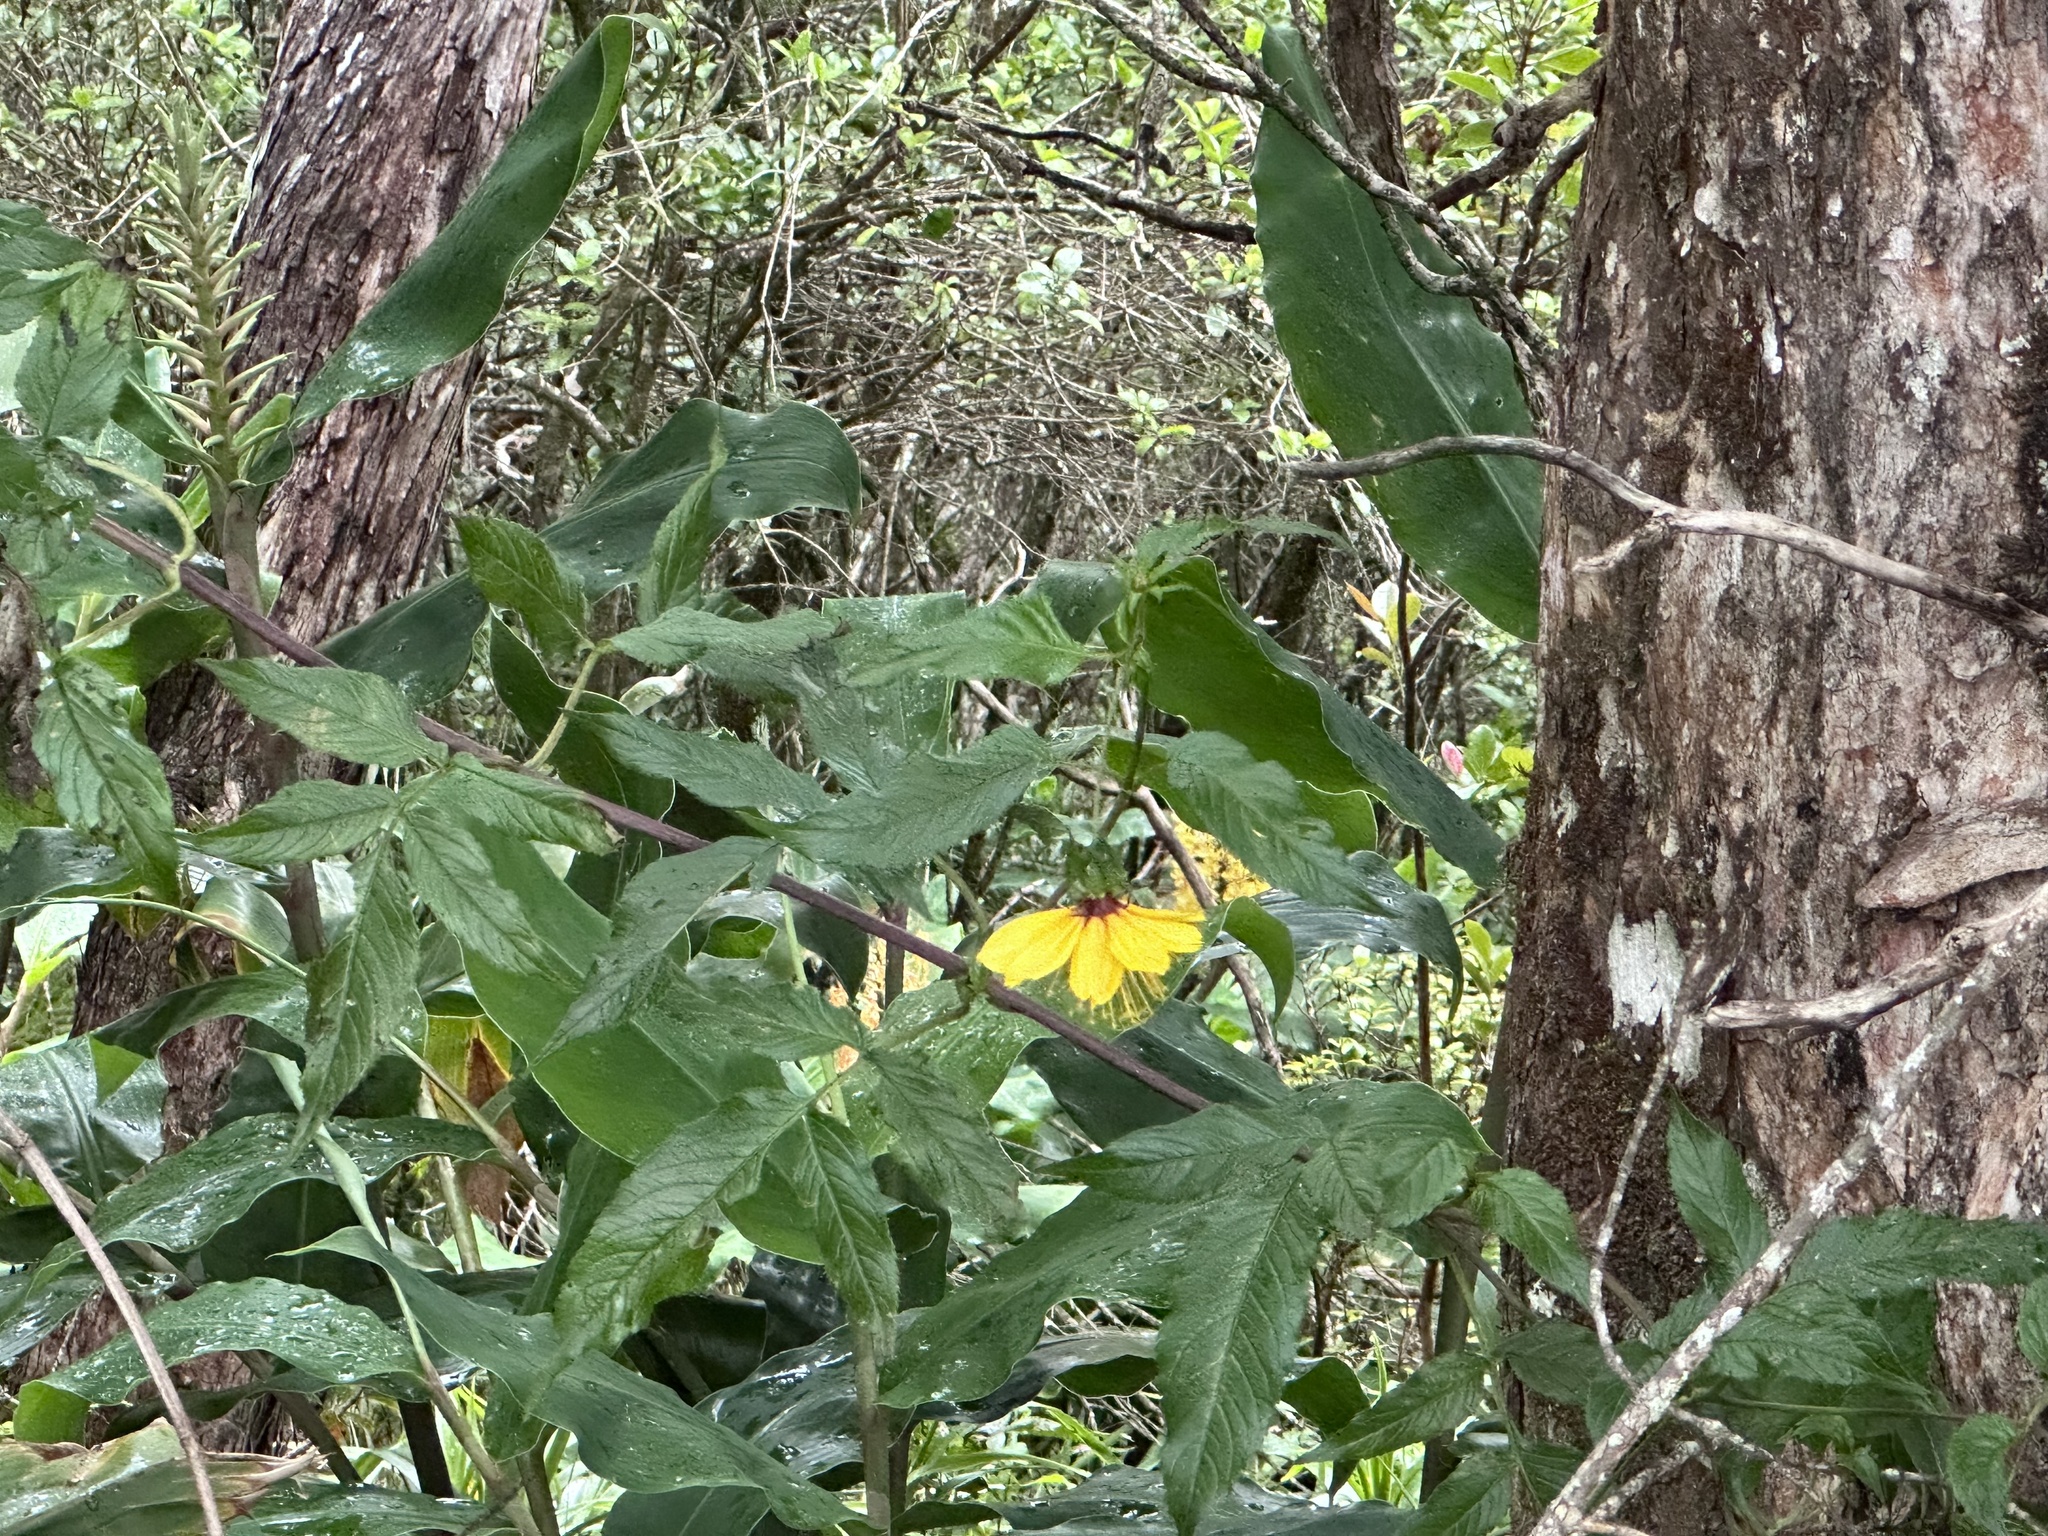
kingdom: Plantae
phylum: Tracheophyta
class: Magnoliopsida
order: Asterales
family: Asteraceae
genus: Bidens
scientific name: Bidens cosmoides
